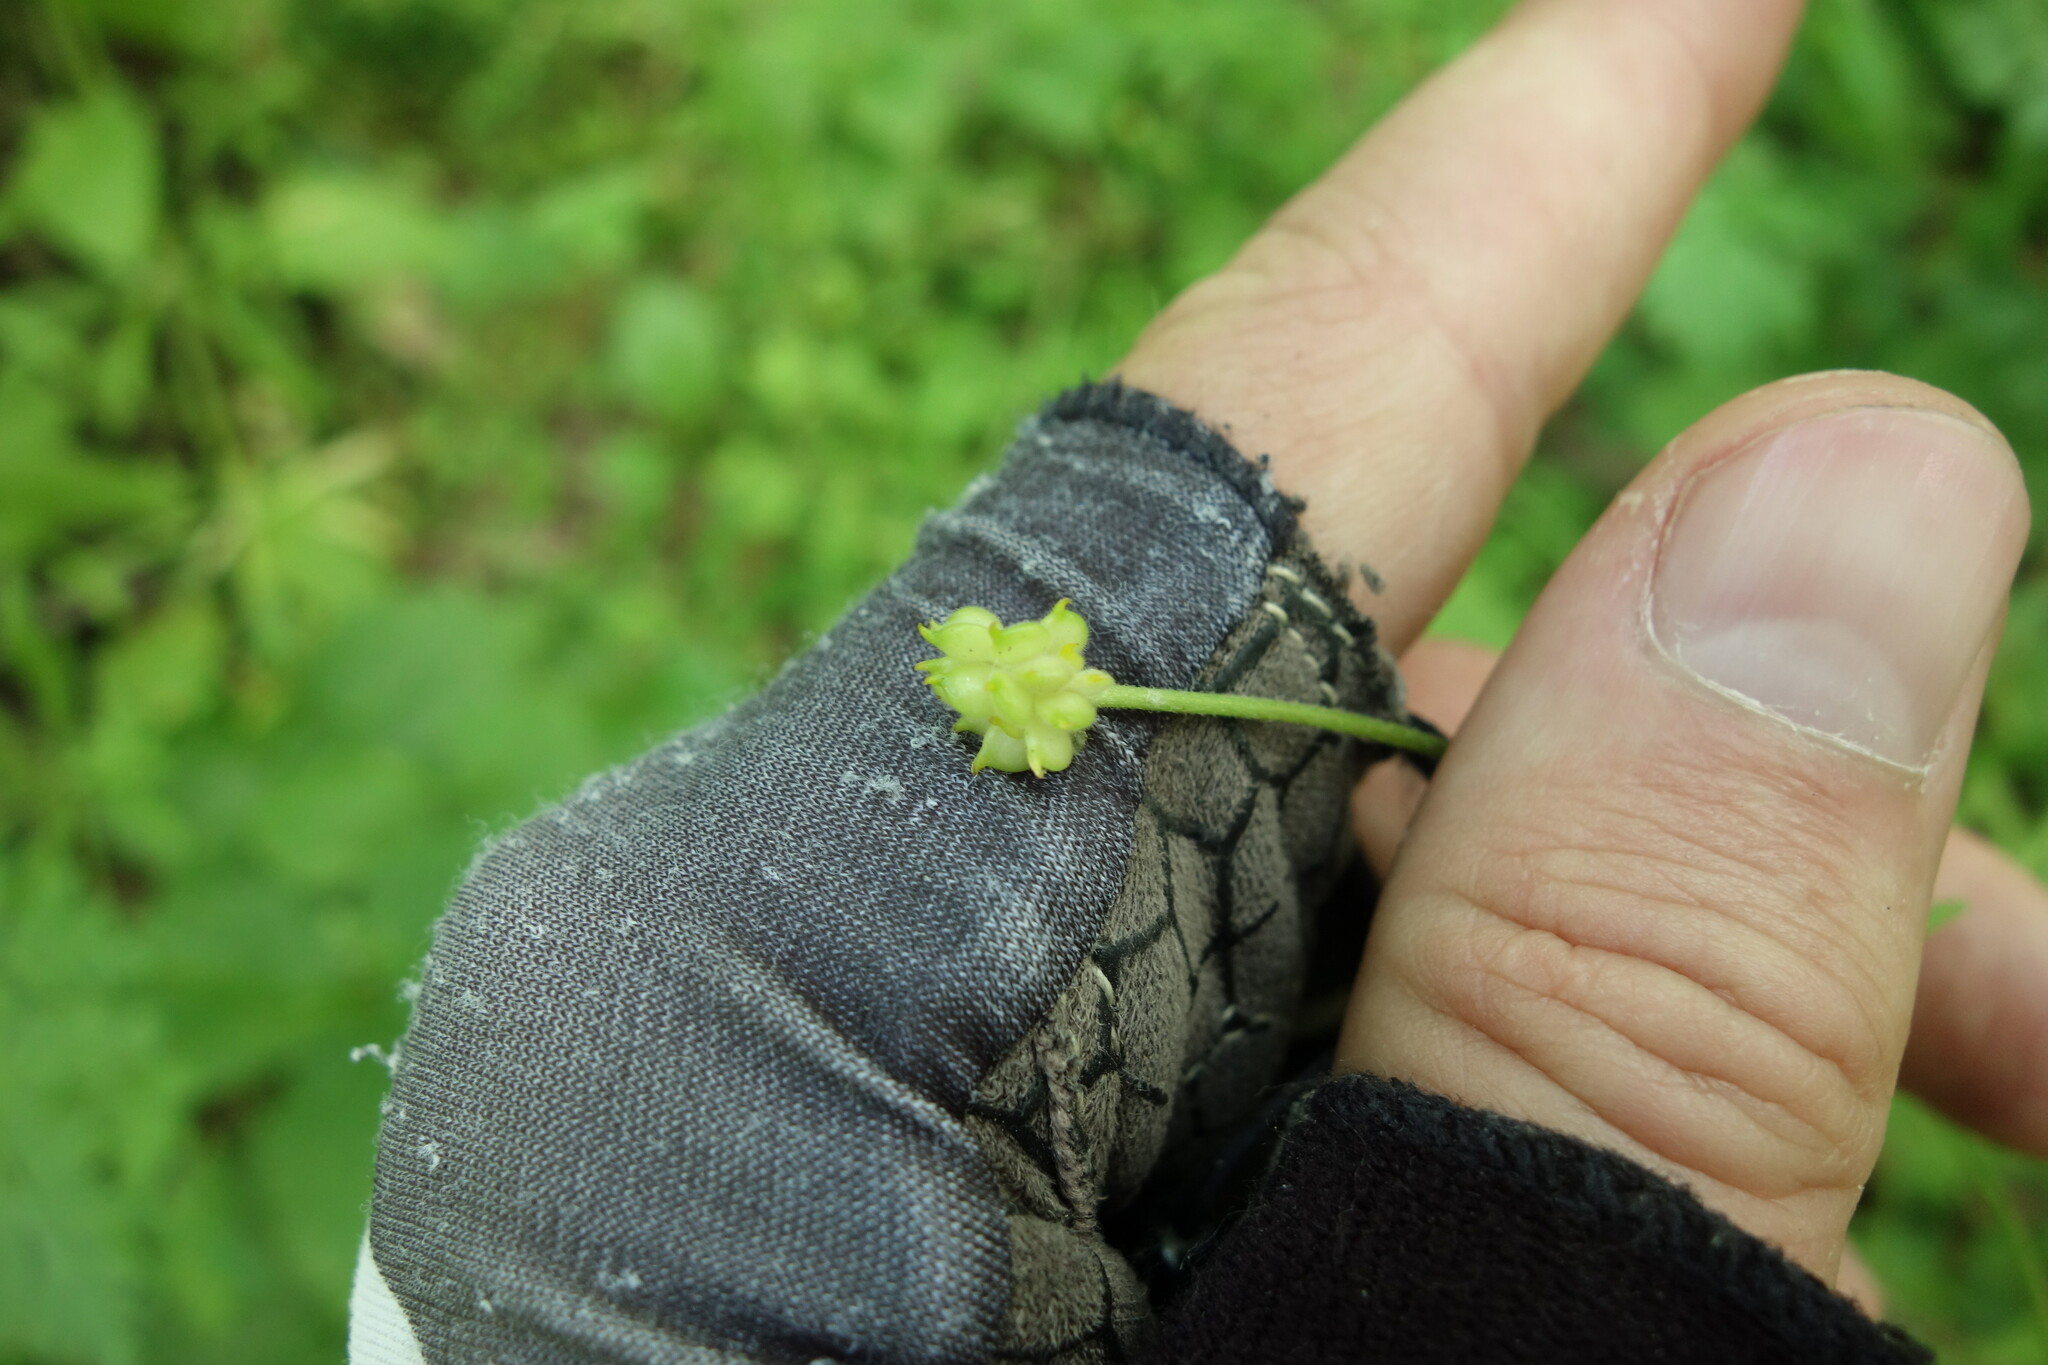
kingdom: Plantae
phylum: Tracheophyta
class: Magnoliopsida
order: Ranunculales
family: Ranunculaceae
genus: Ranunculus
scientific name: Ranunculus auricomus
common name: Goldilocks buttercup
